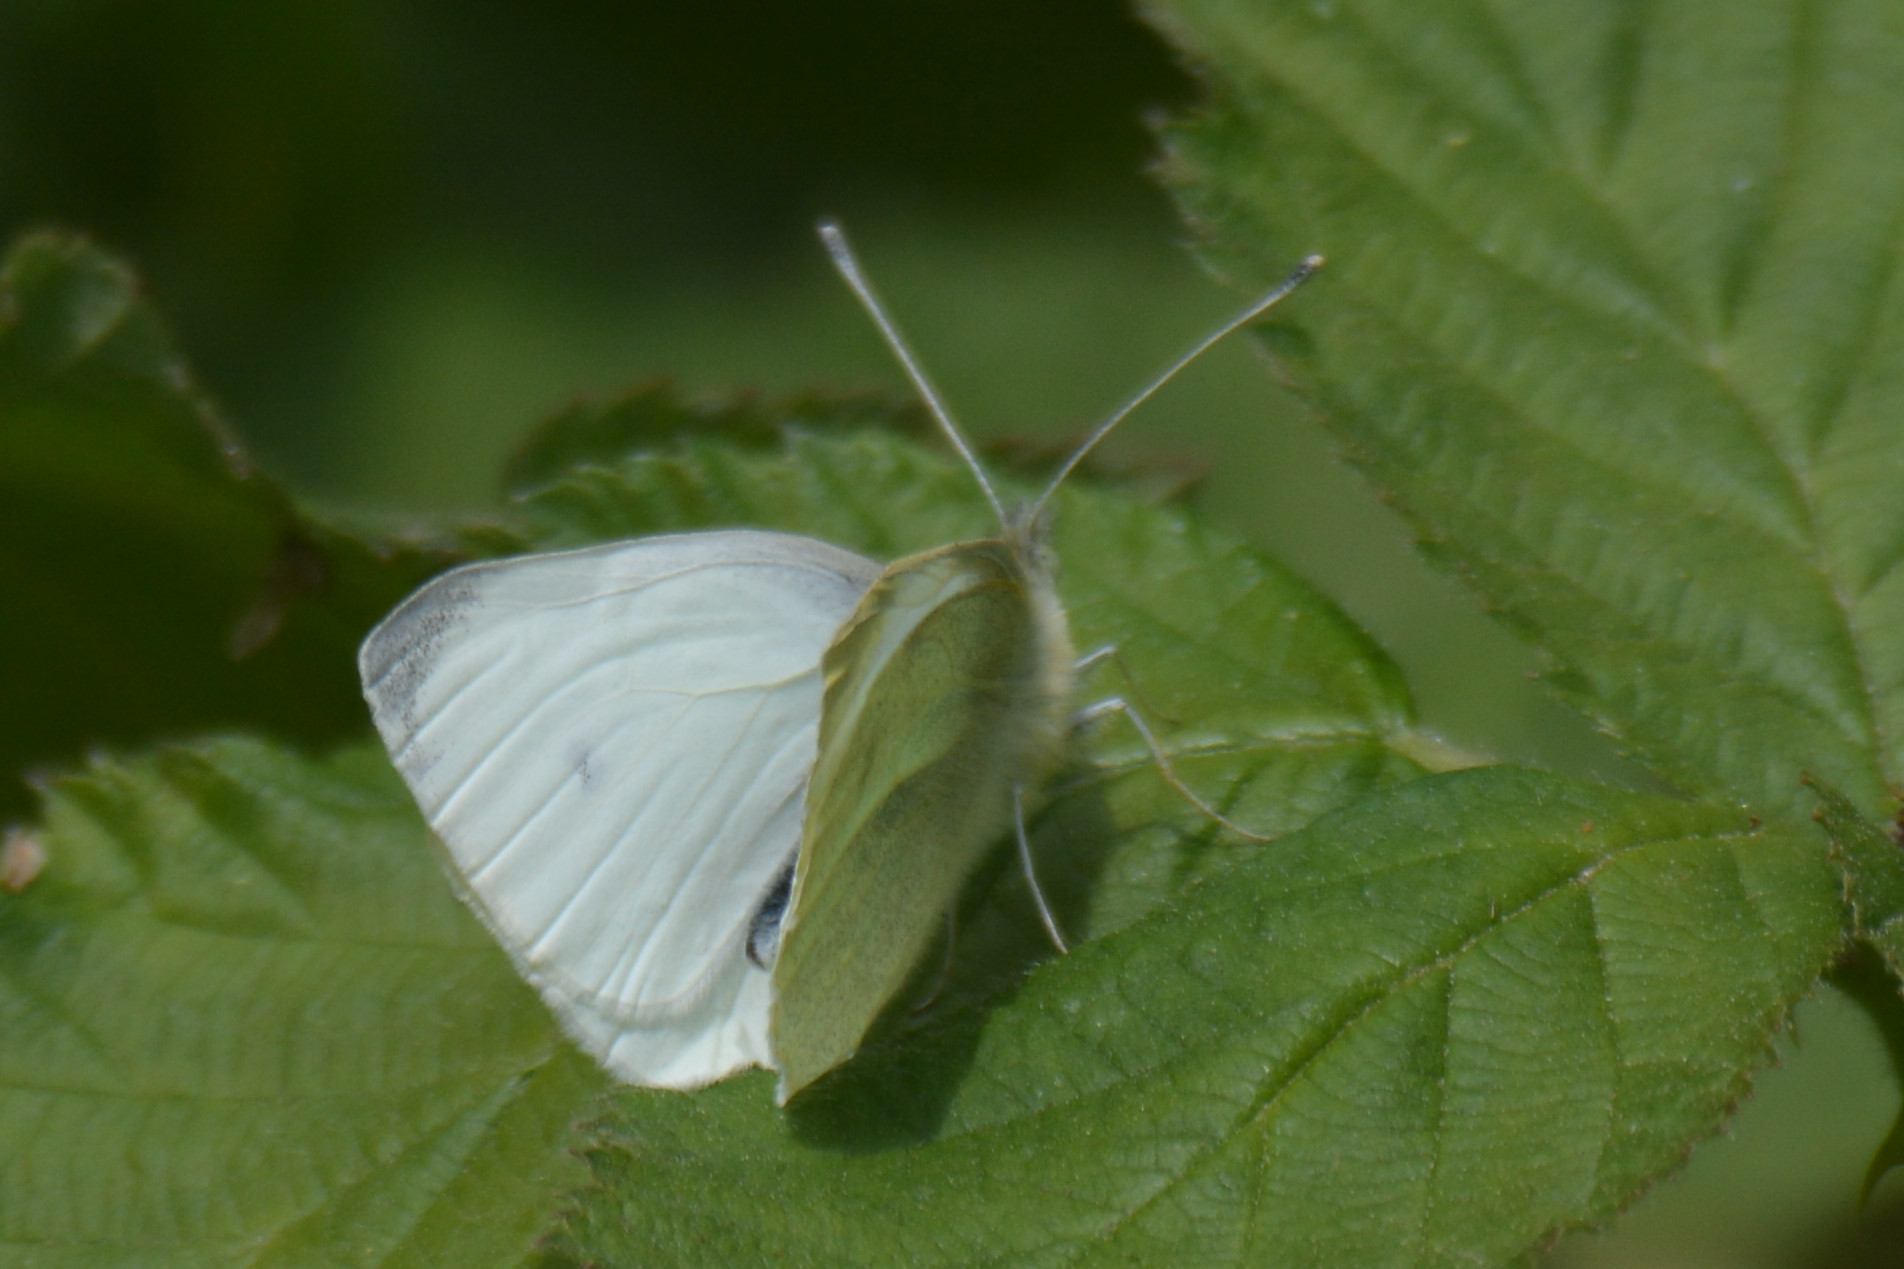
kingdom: Animalia
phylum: Arthropoda
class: Insecta
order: Lepidoptera
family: Pieridae
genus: Pieris
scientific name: Pieris rapae
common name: Small white
